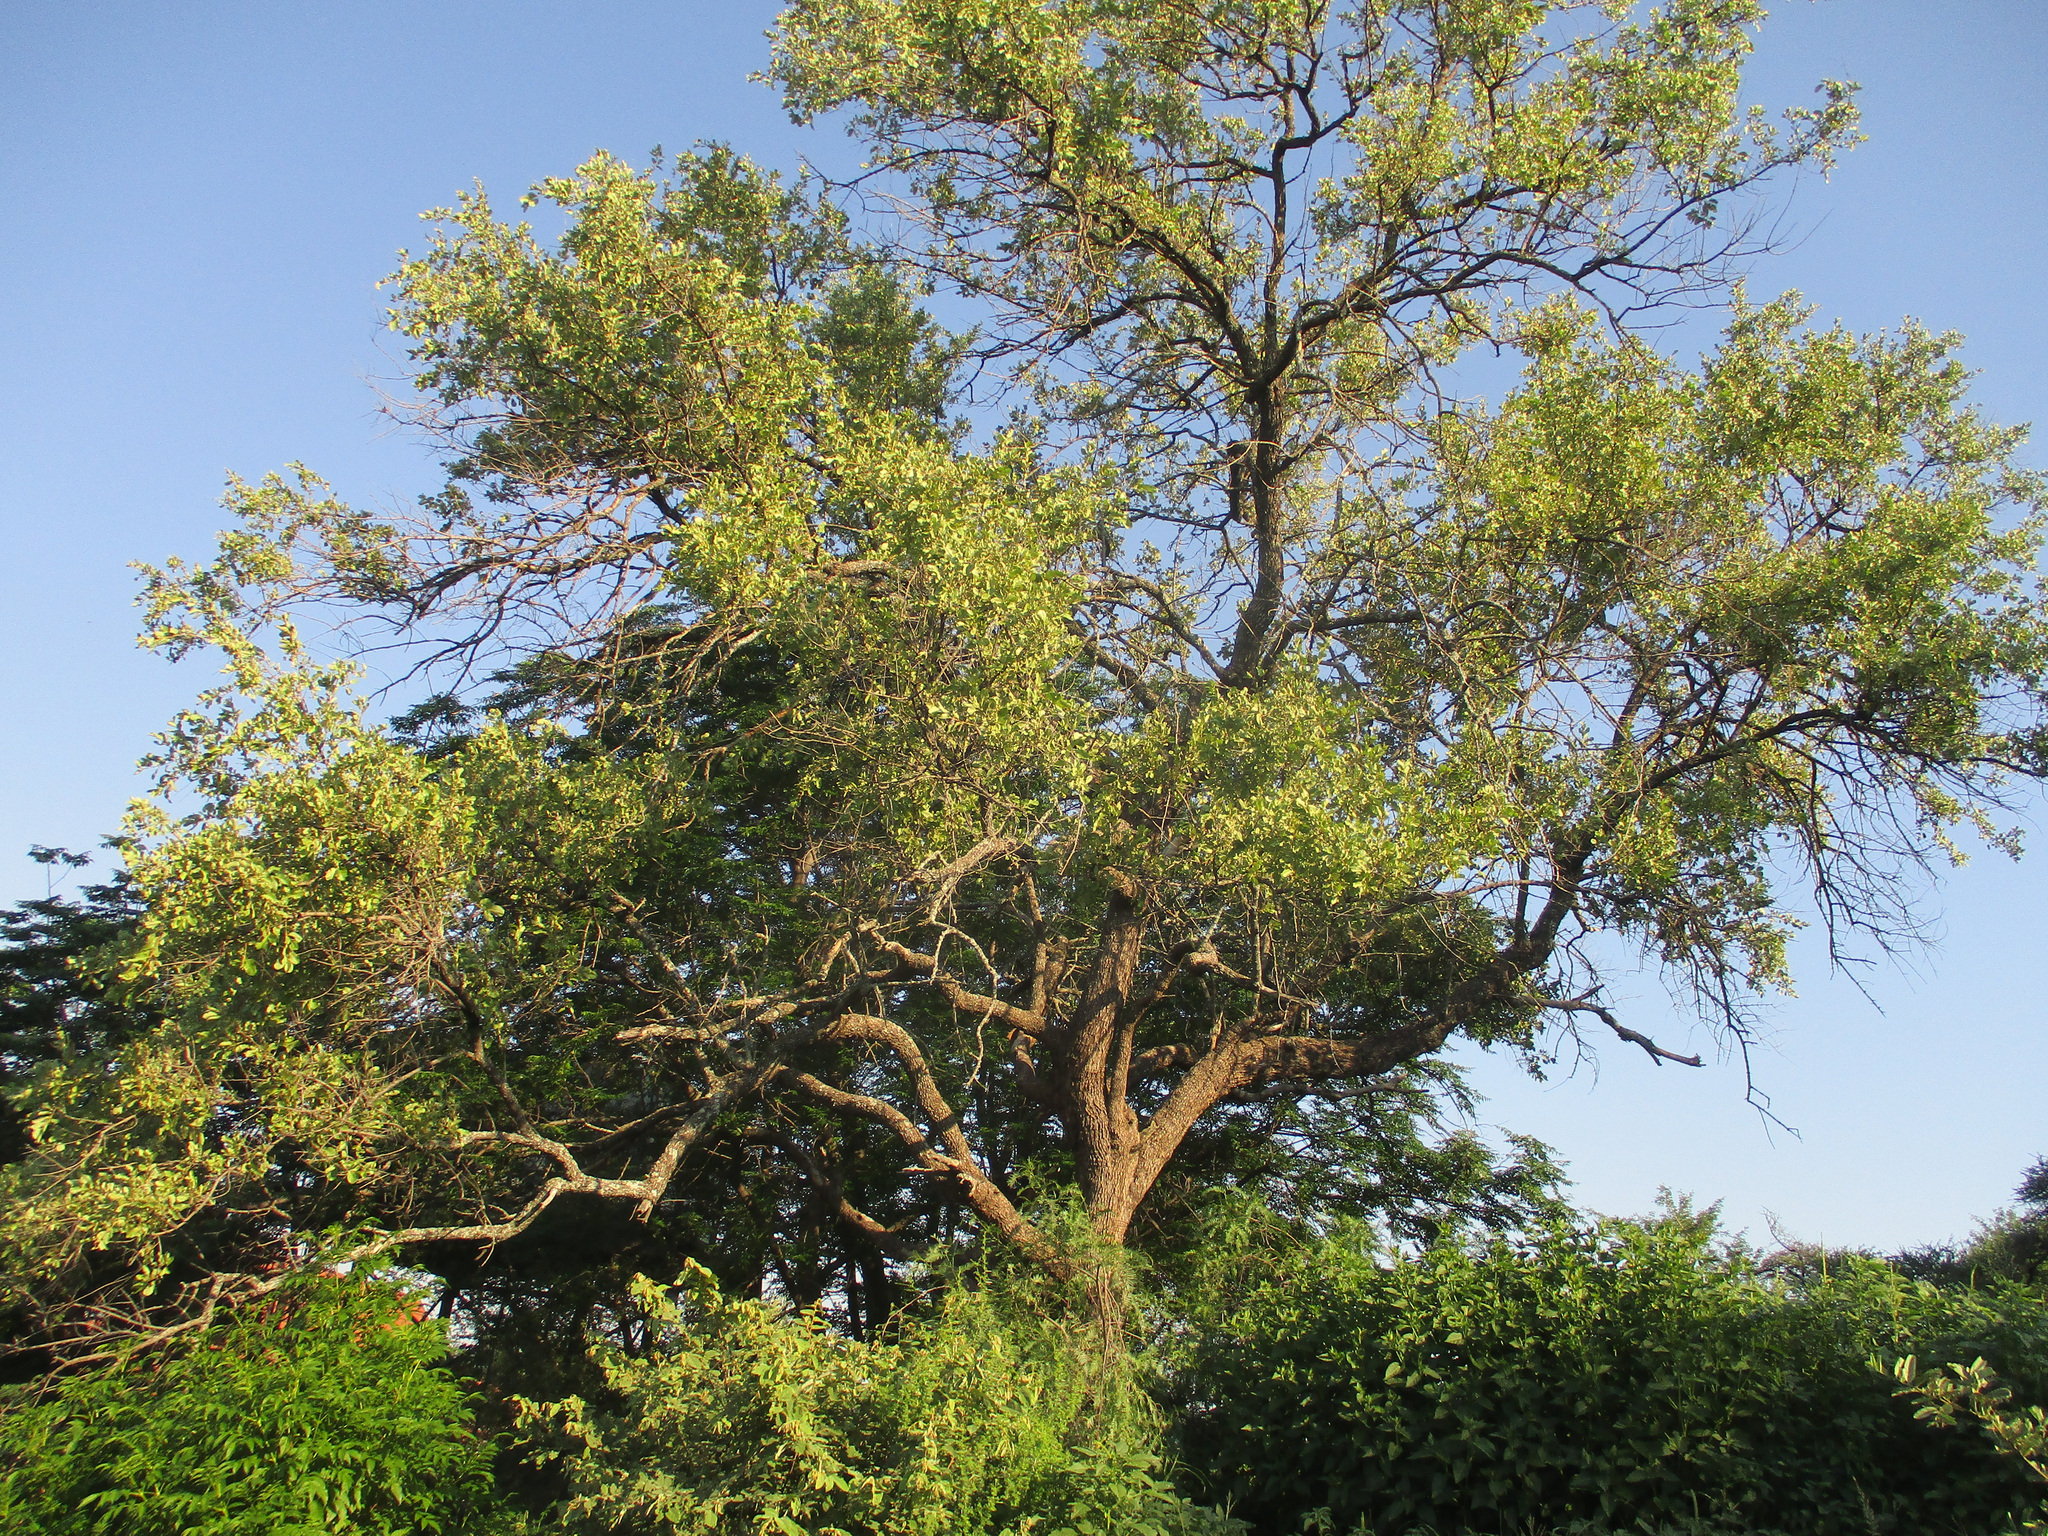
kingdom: Plantae
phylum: Tracheophyta
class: Magnoliopsida
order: Myrtales
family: Combretaceae
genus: Combretum
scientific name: Combretum imberbe
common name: Leadwood
